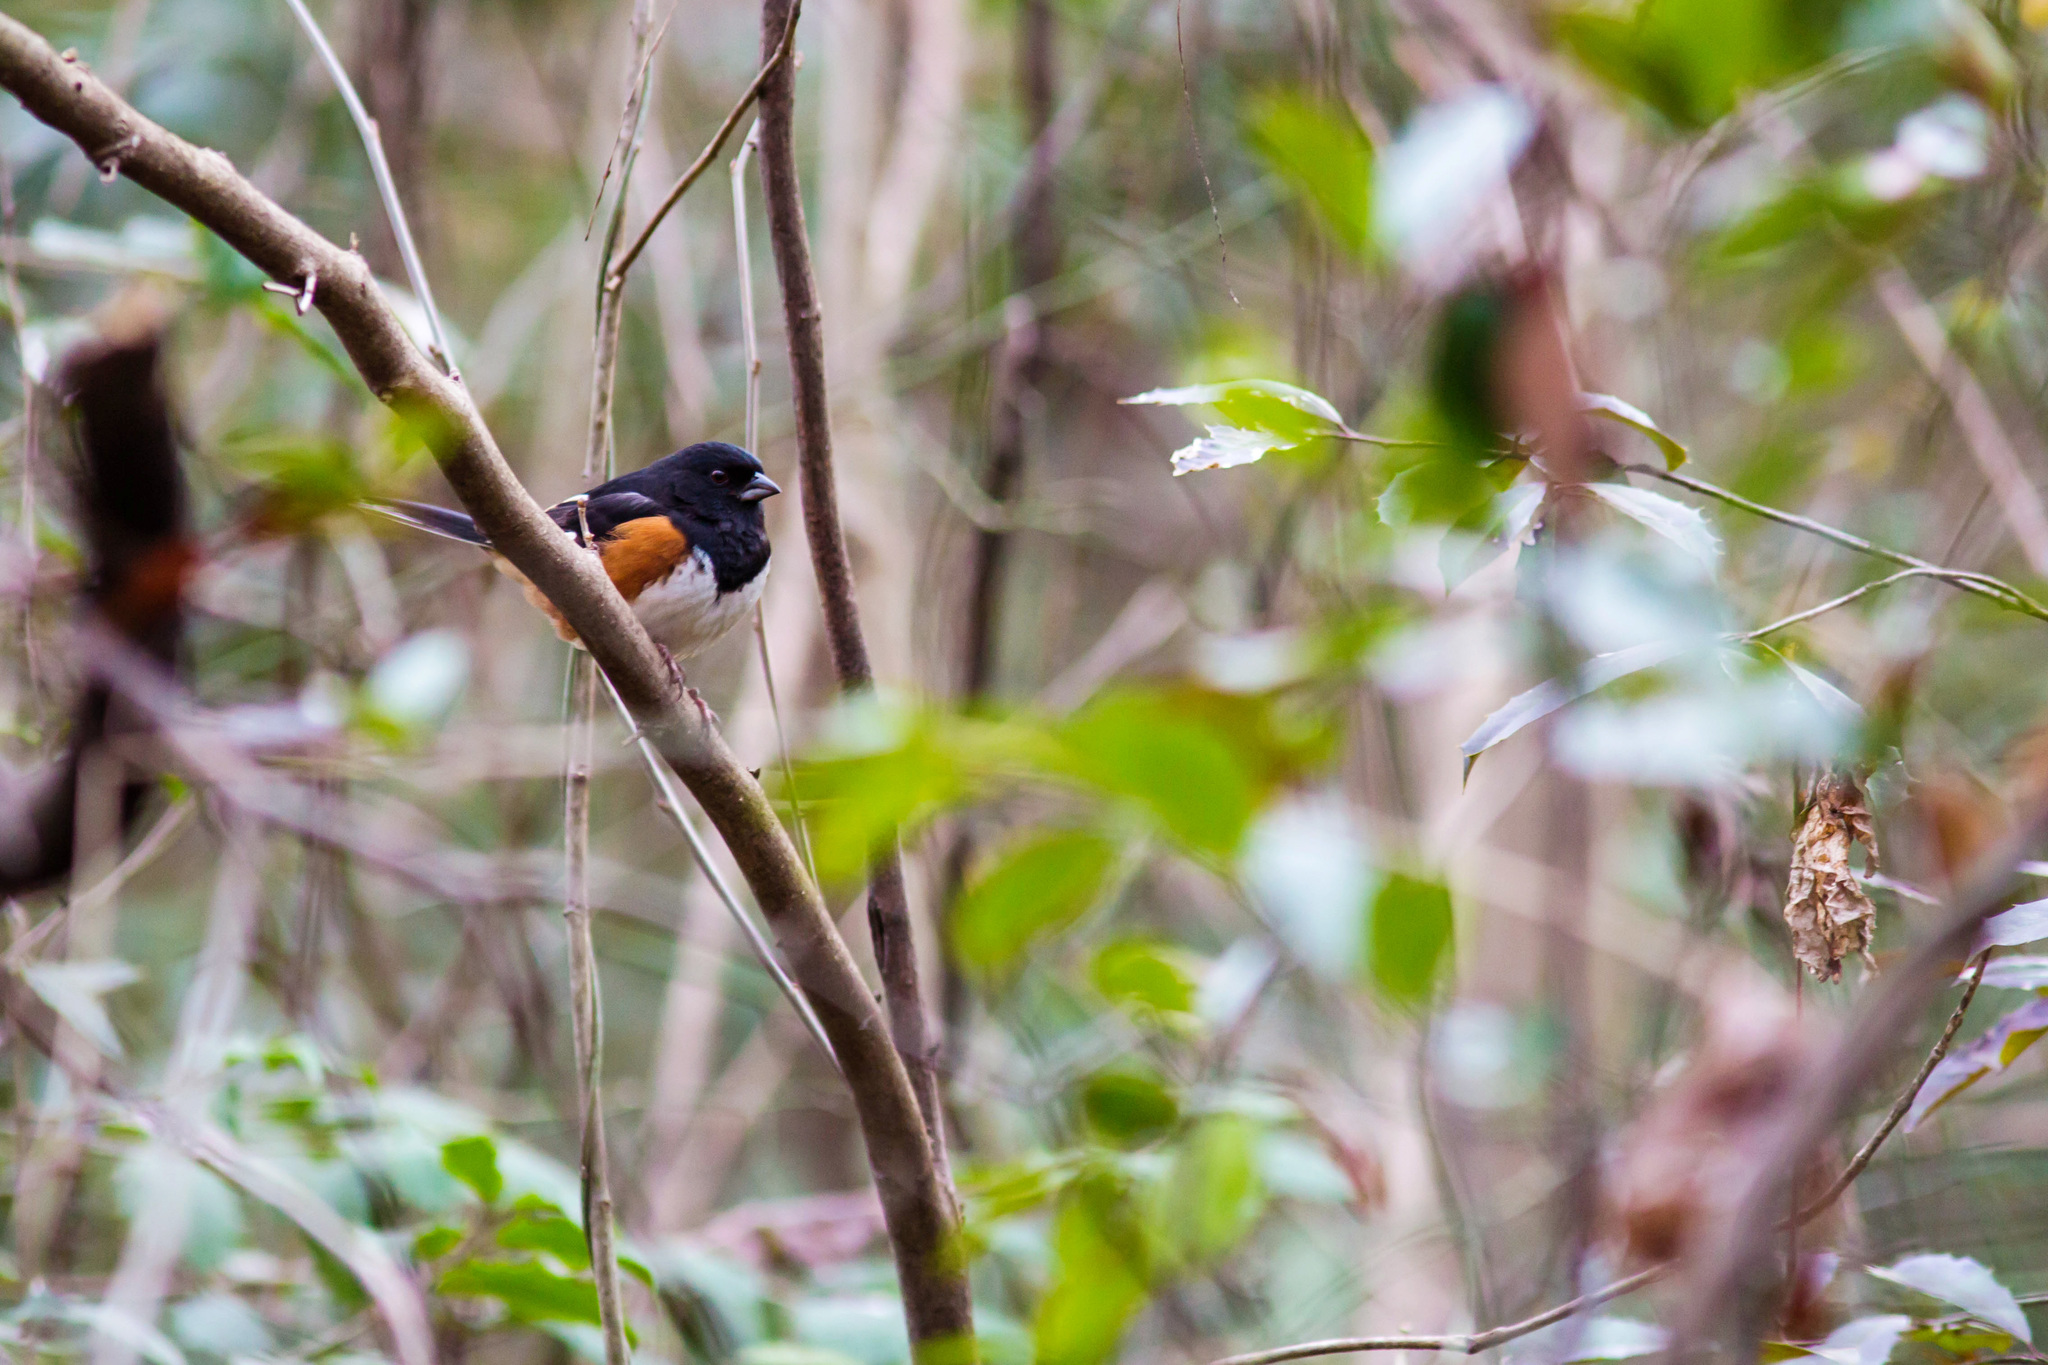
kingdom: Animalia
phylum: Chordata
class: Aves
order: Passeriformes
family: Passerellidae
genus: Pipilo
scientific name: Pipilo erythrophthalmus
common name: Eastern towhee
